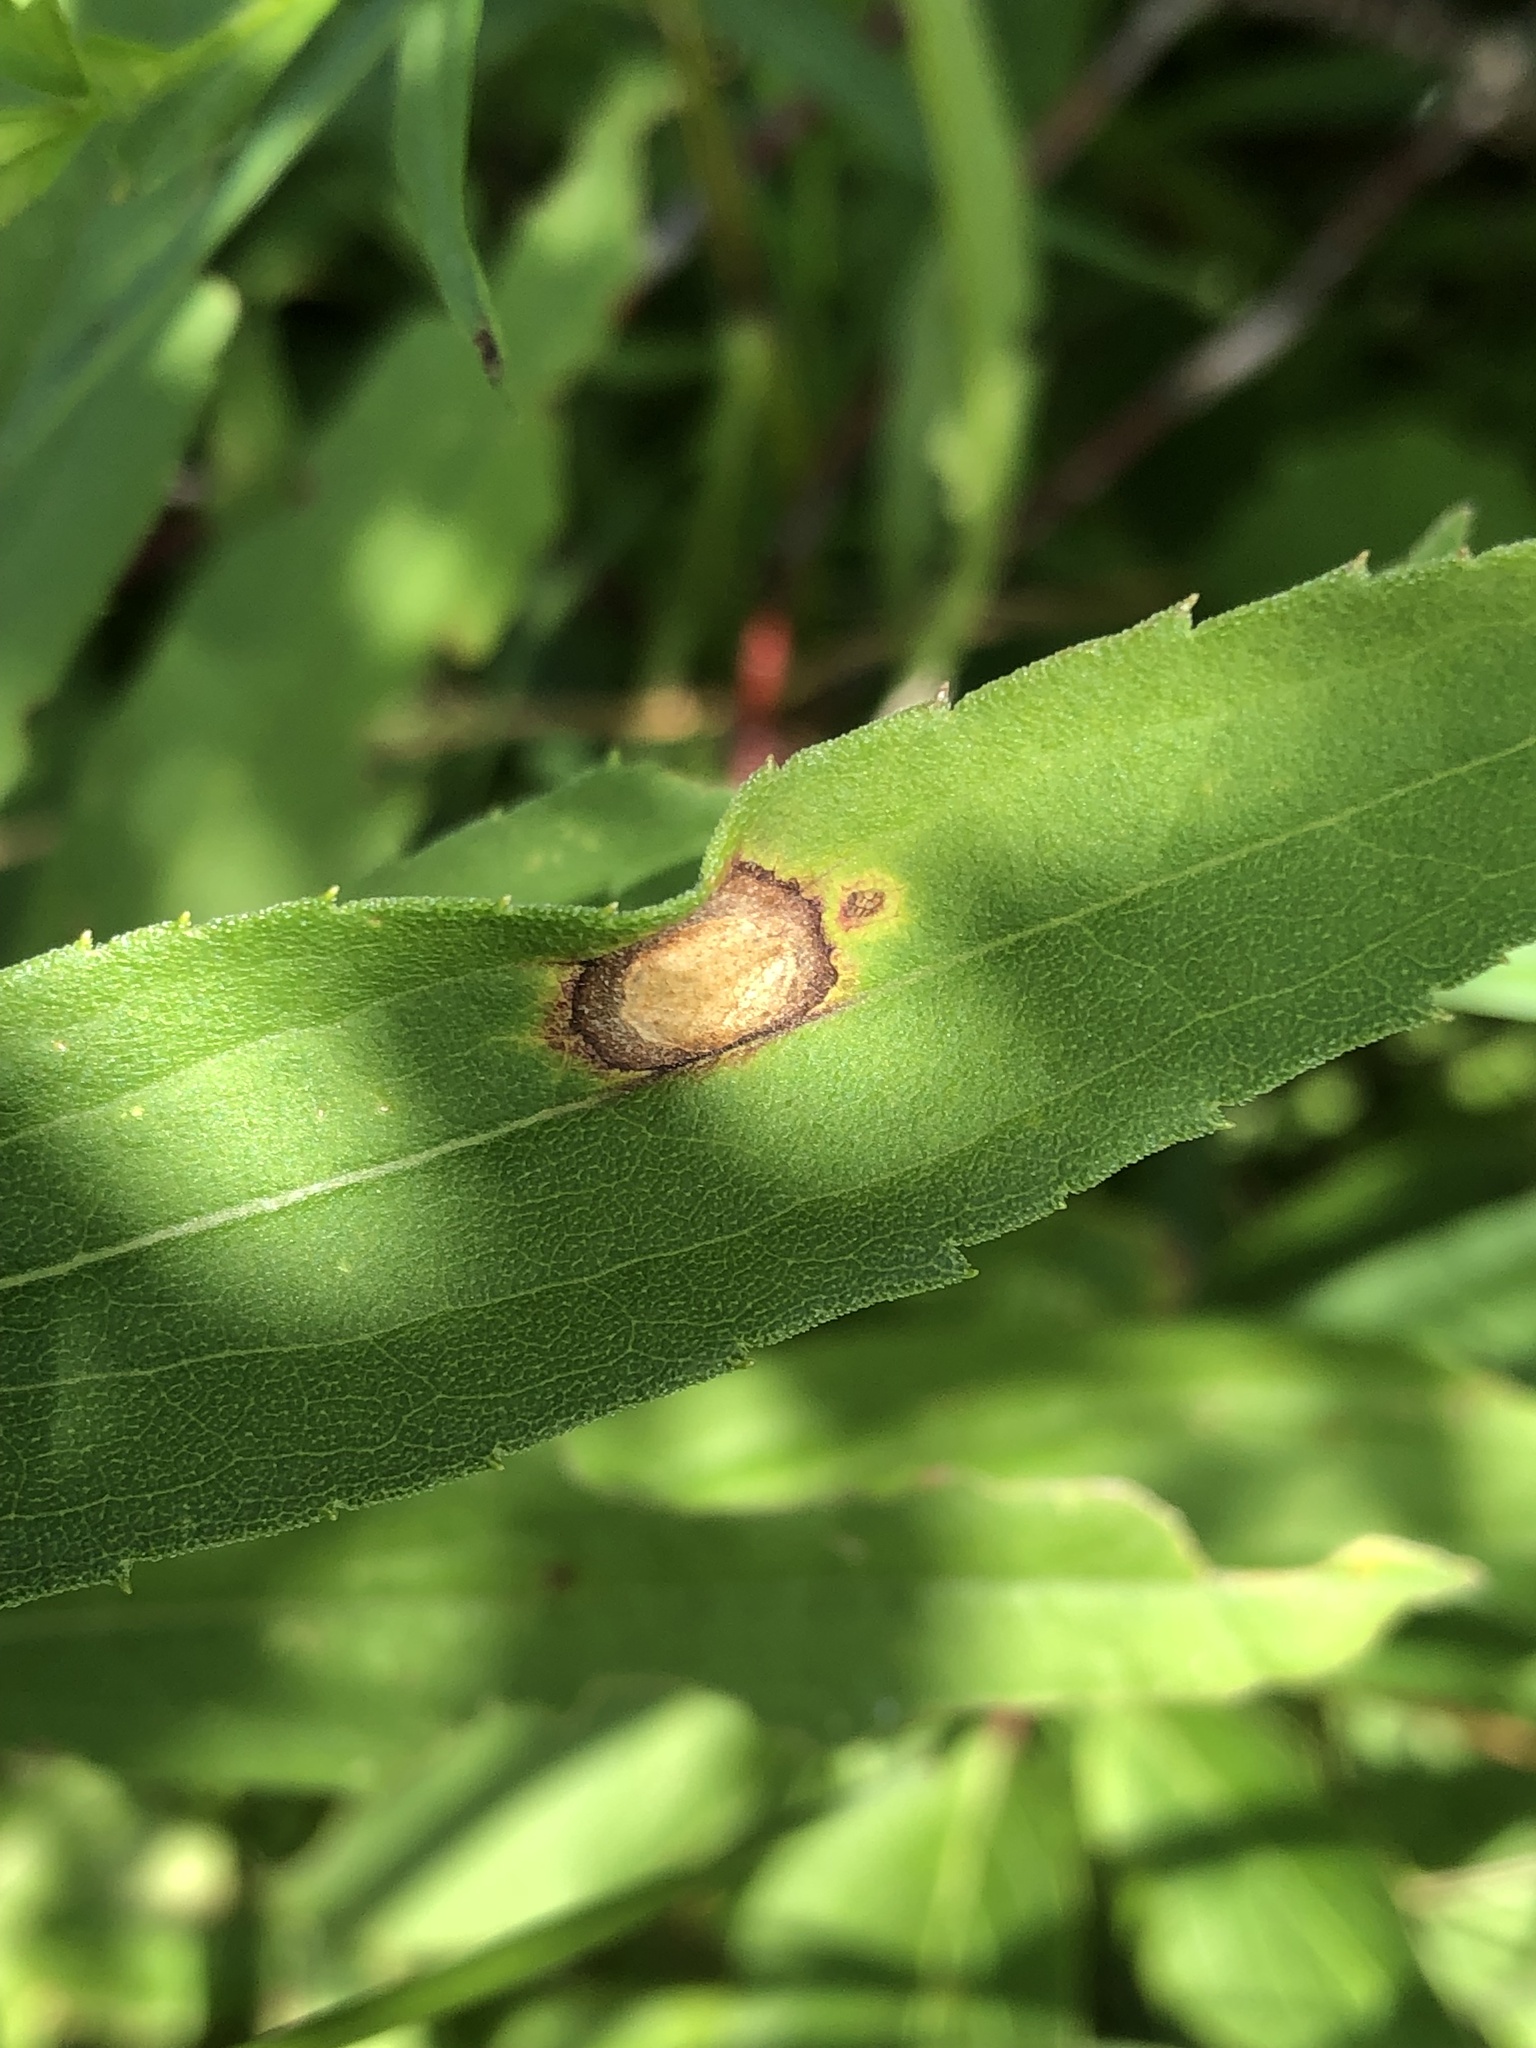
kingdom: Animalia
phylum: Arthropoda
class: Insecta
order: Diptera
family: Cecidomyiidae
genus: Asteromyia
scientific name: Asteromyia carbonifera
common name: Carbonifera goldenrod gall midge
